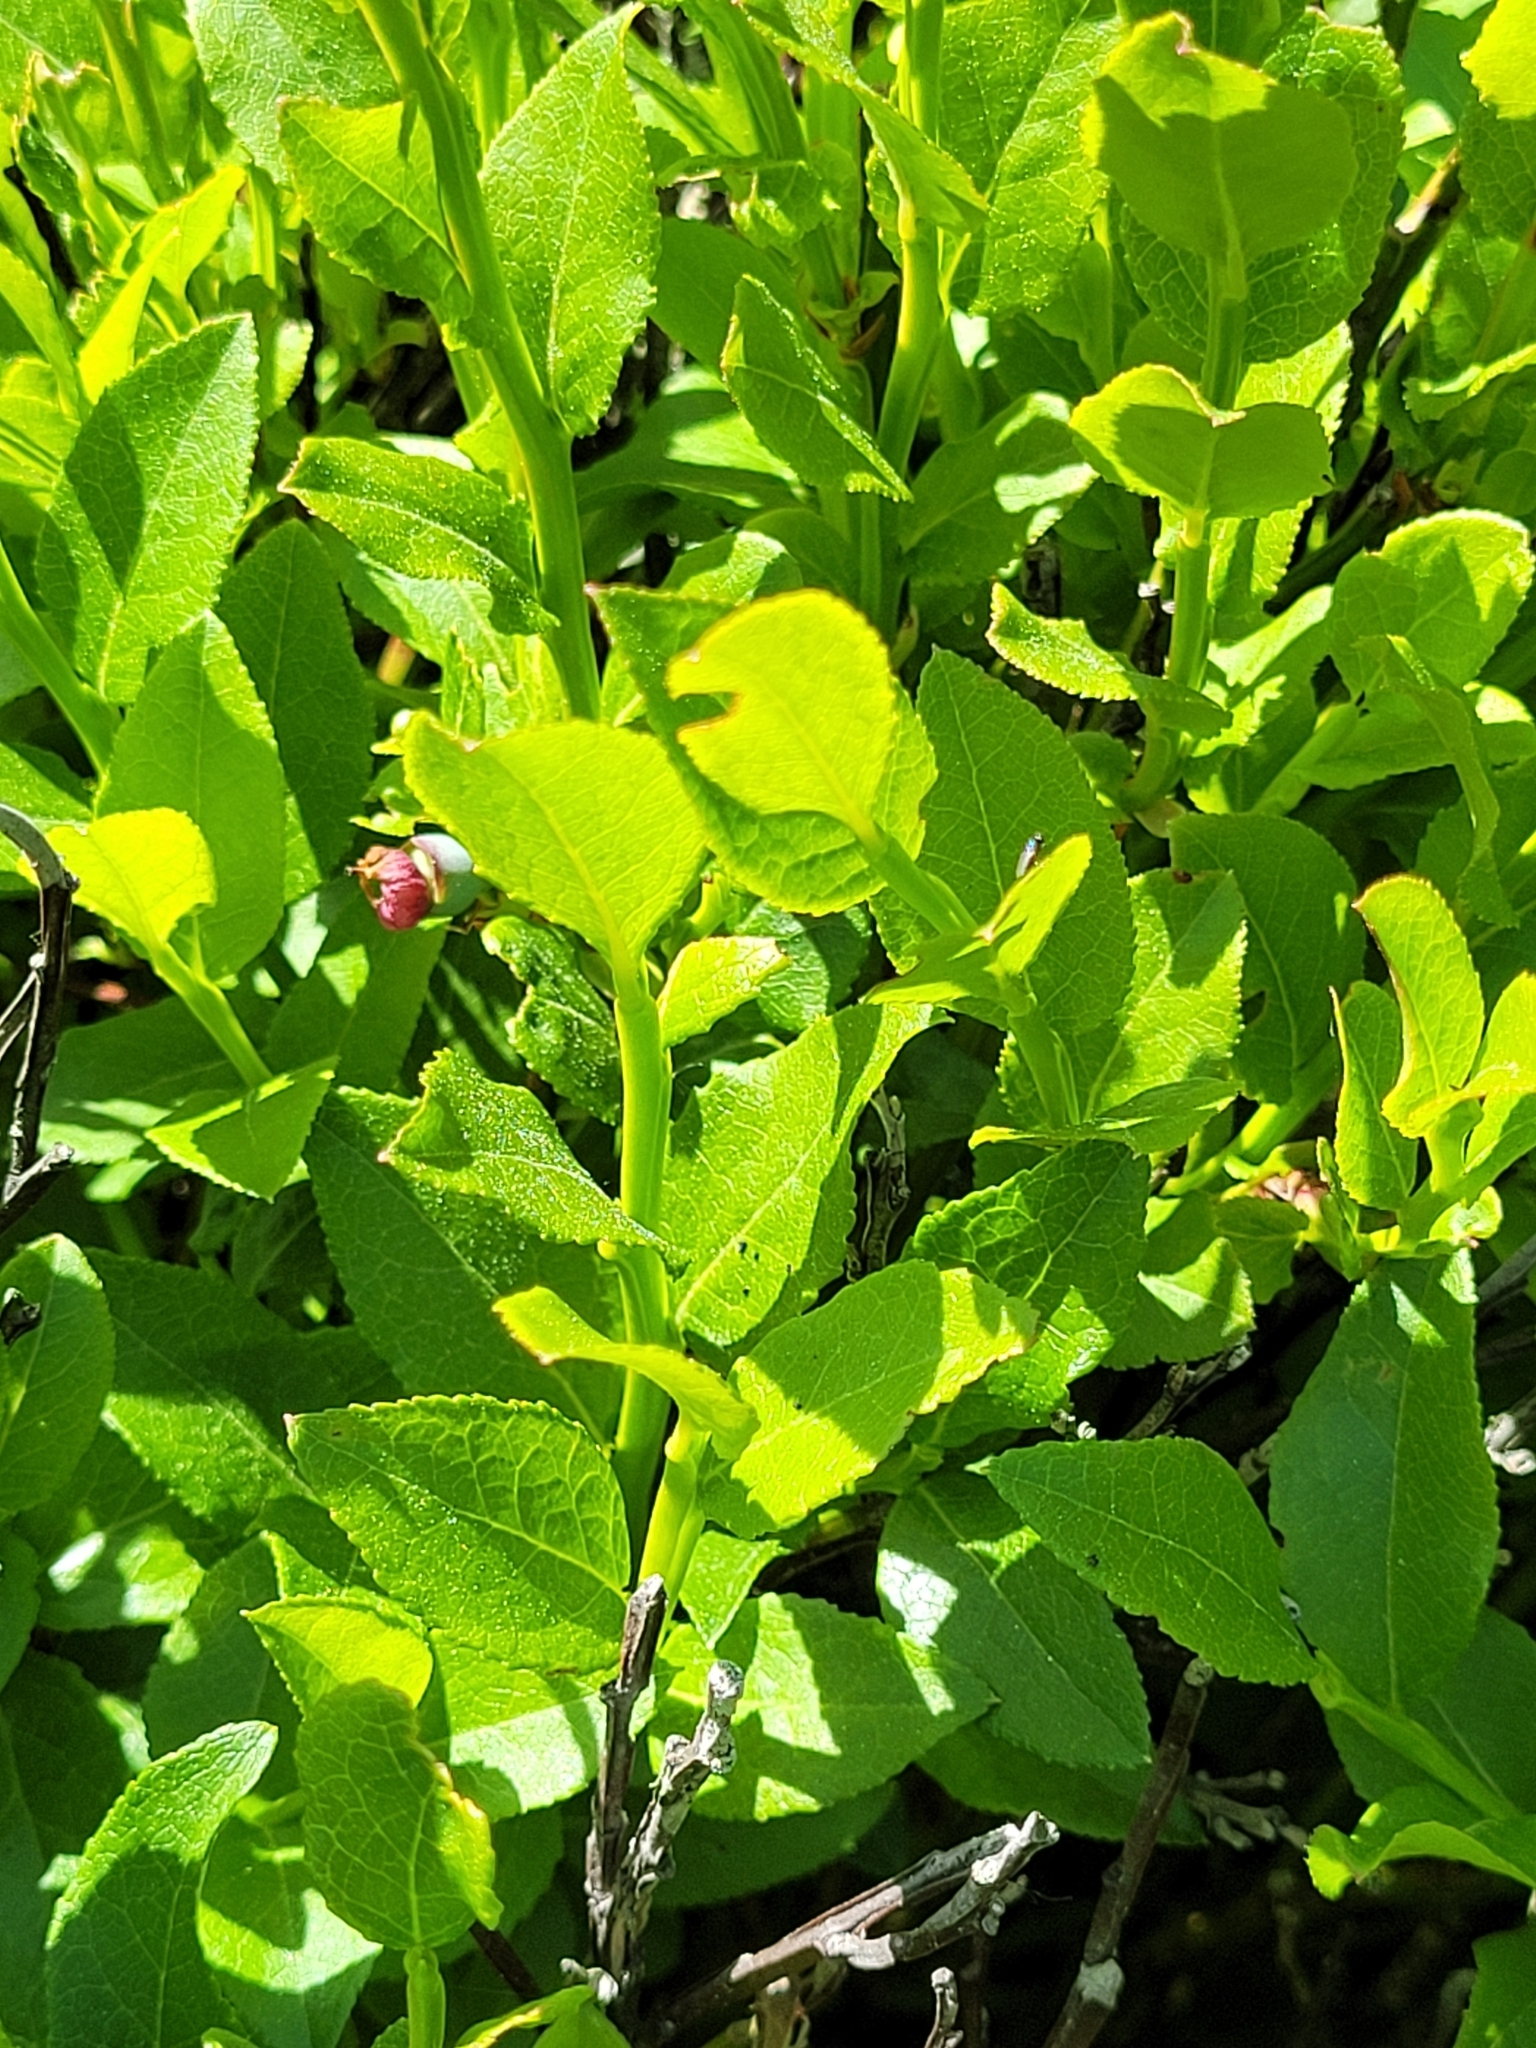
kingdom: Plantae
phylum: Tracheophyta
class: Magnoliopsida
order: Ericales
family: Ericaceae
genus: Vaccinium
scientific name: Vaccinium myrtillus
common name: Bilberry
